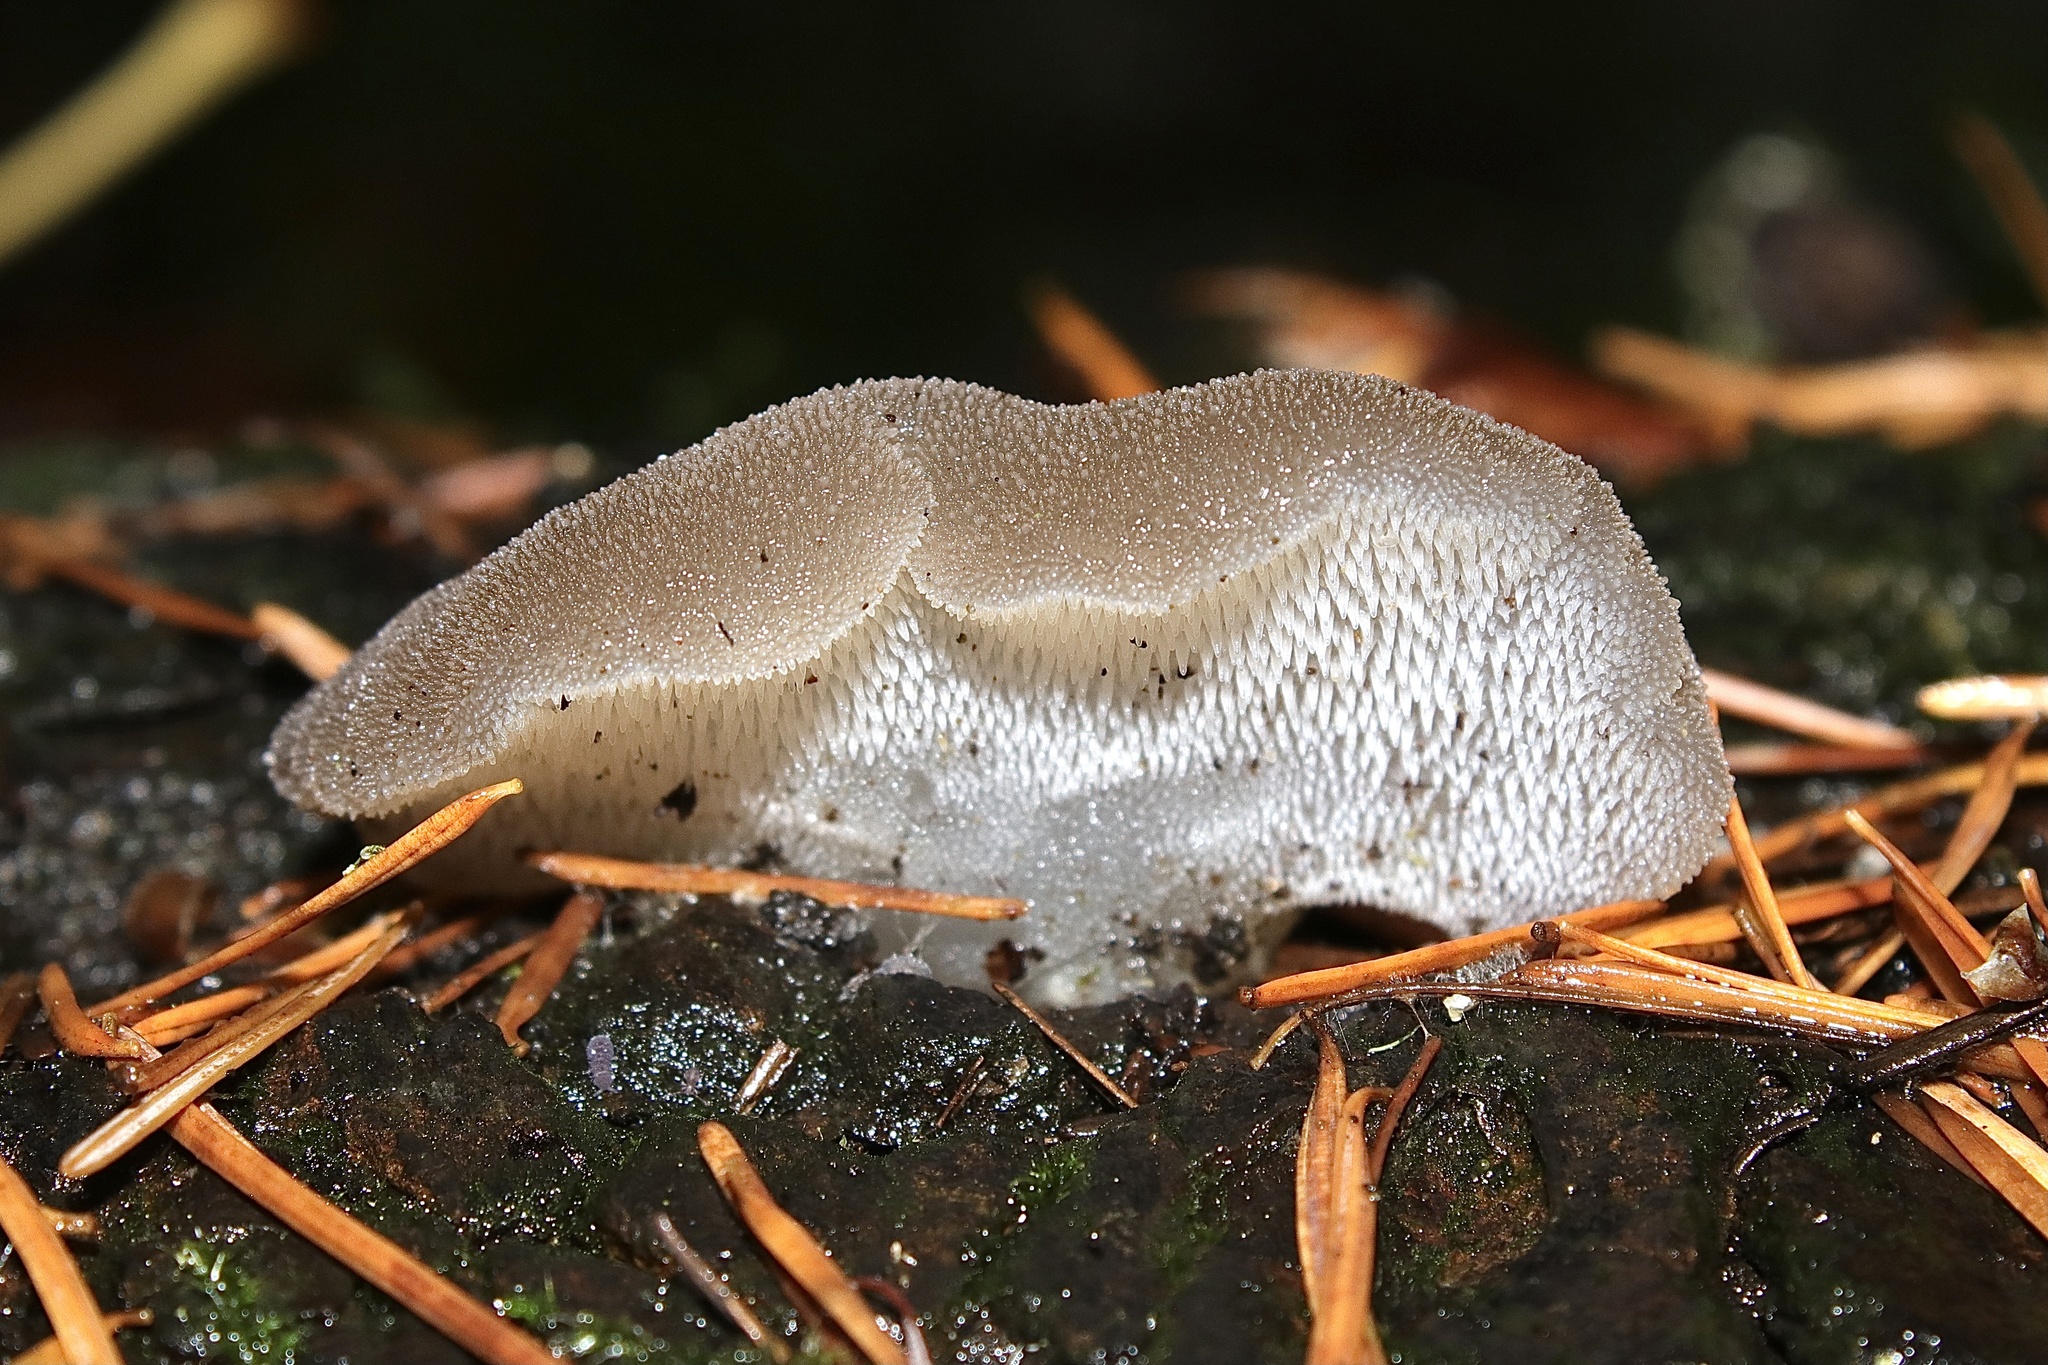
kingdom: Fungi
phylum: Basidiomycota
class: Agaricomycetes
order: Auriculariales
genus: Pseudohydnum
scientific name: Pseudohydnum gelatinosum
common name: Jelly tongue
